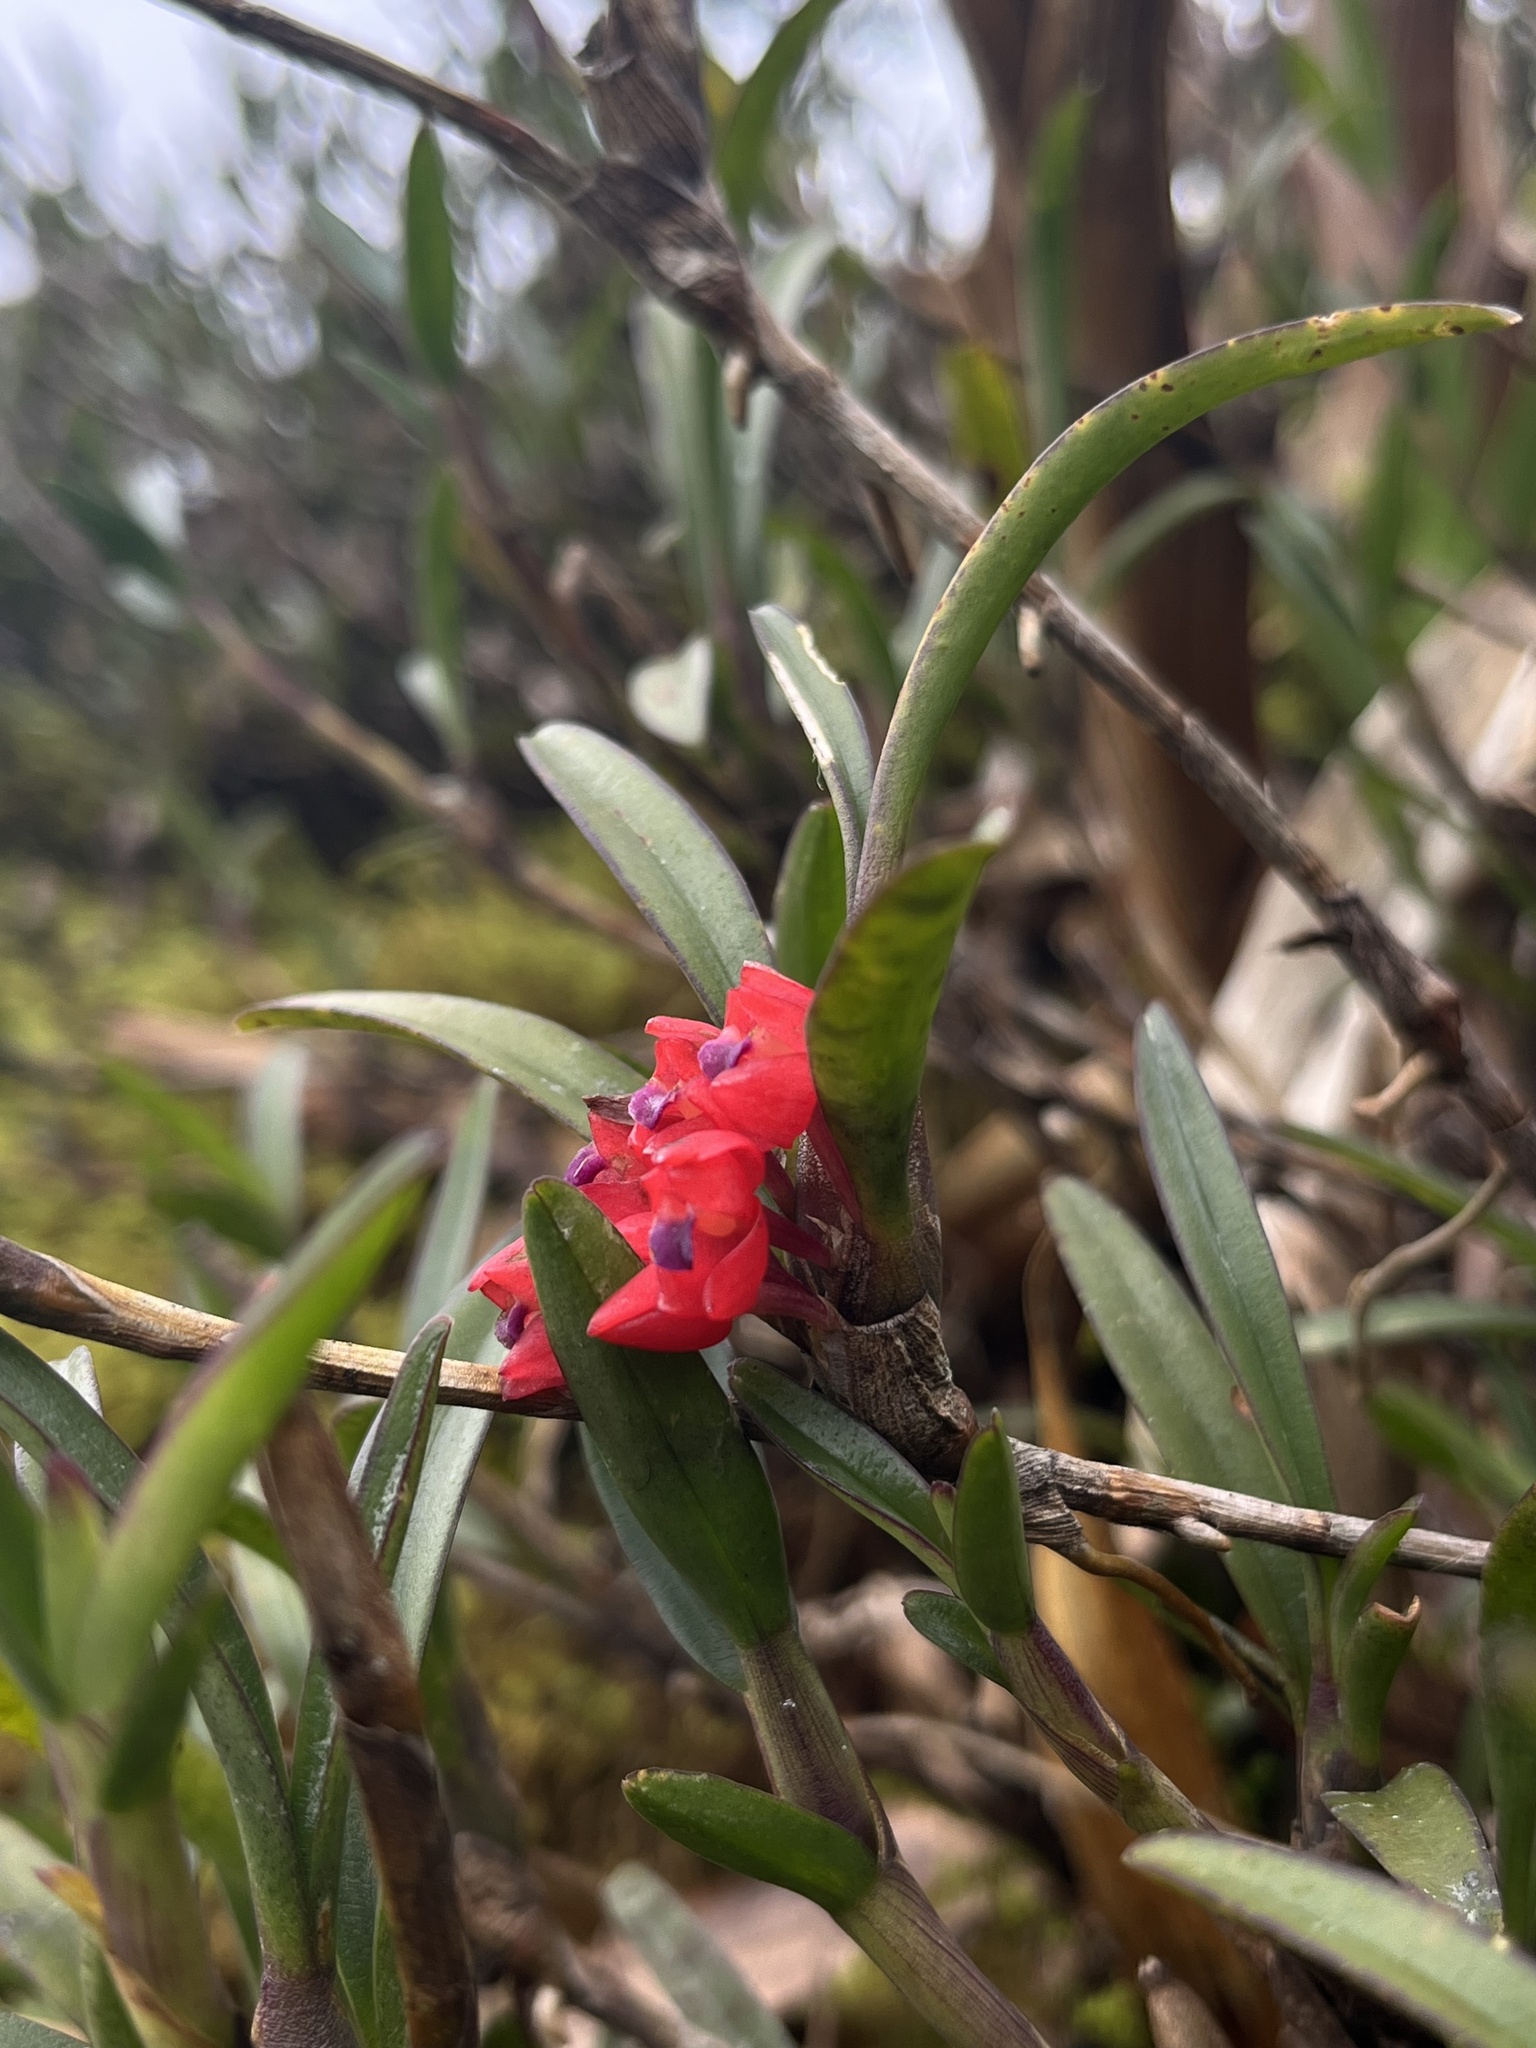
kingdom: Plantae
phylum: Tracheophyta
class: Liliopsida
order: Asparagales
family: Orchidaceae
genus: Maxillaria
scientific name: Maxillaria ruberrima
